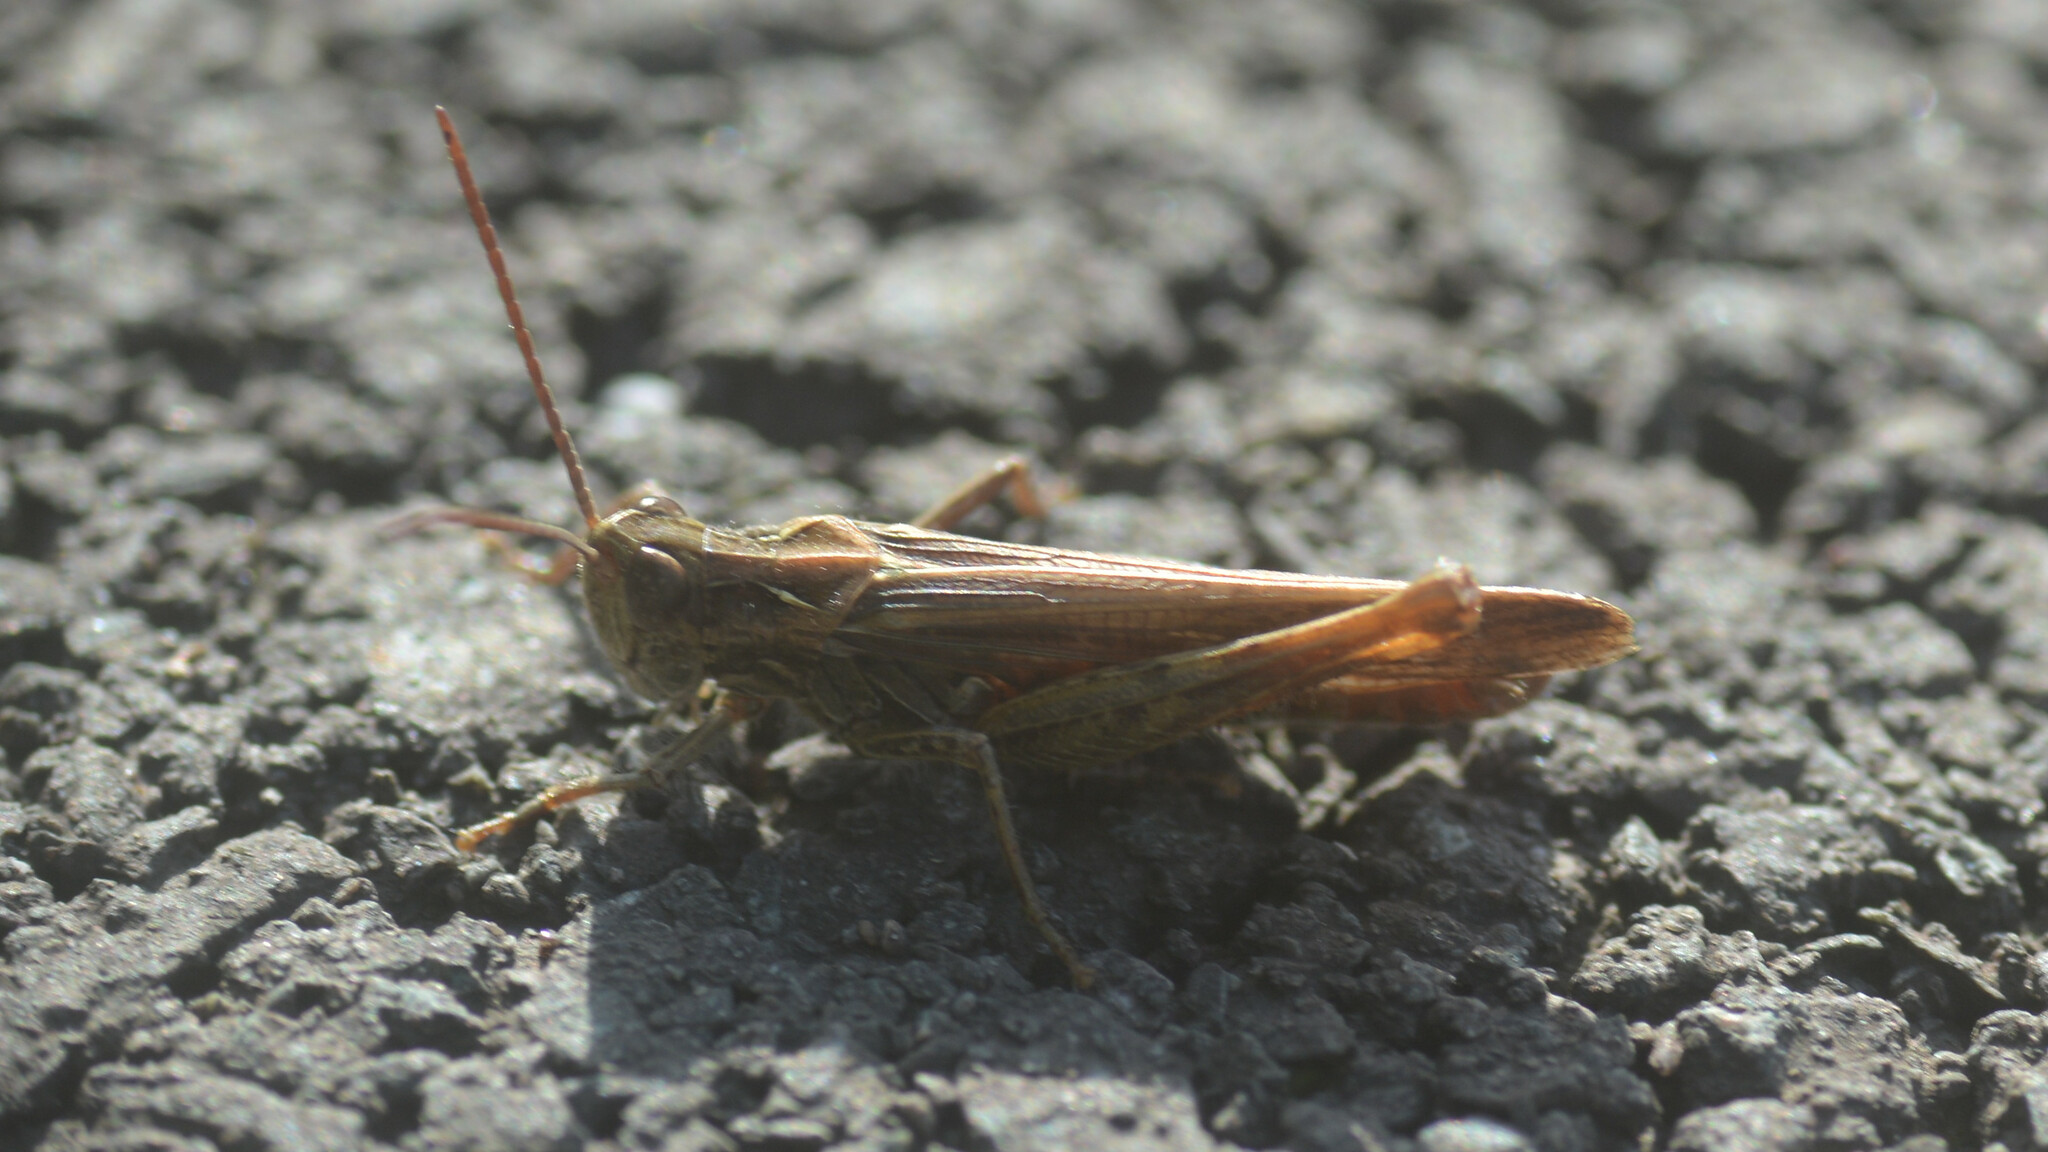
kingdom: Animalia
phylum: Arthropoda
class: Insecta
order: Orthoptera
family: Acrididae
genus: Chorthippus
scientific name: Chorthippus brunneus
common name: Field grasshopper
